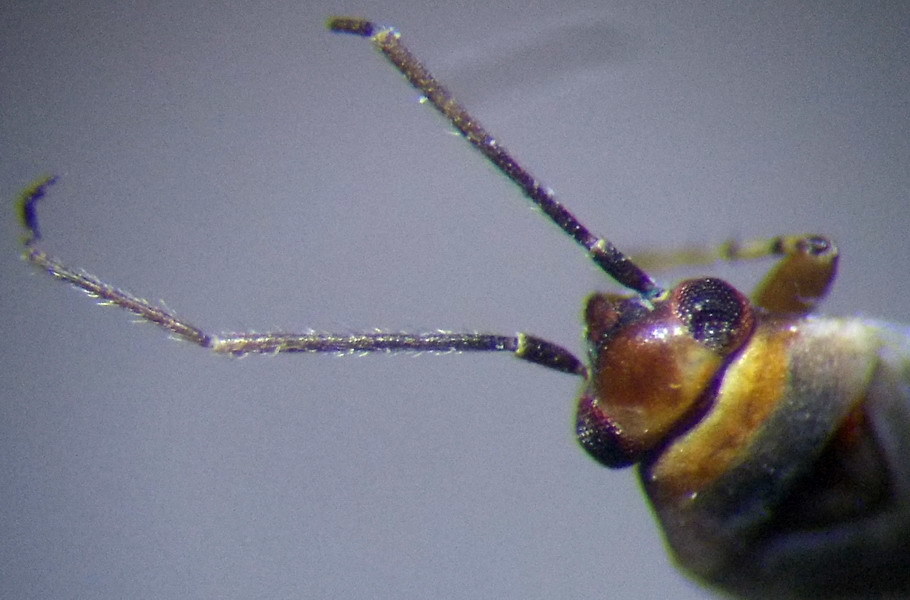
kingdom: Animalia
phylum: Arthropoda
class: Insecta
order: Hemiptera
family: Miridae
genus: Europiella
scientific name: Europiella artemisiae
